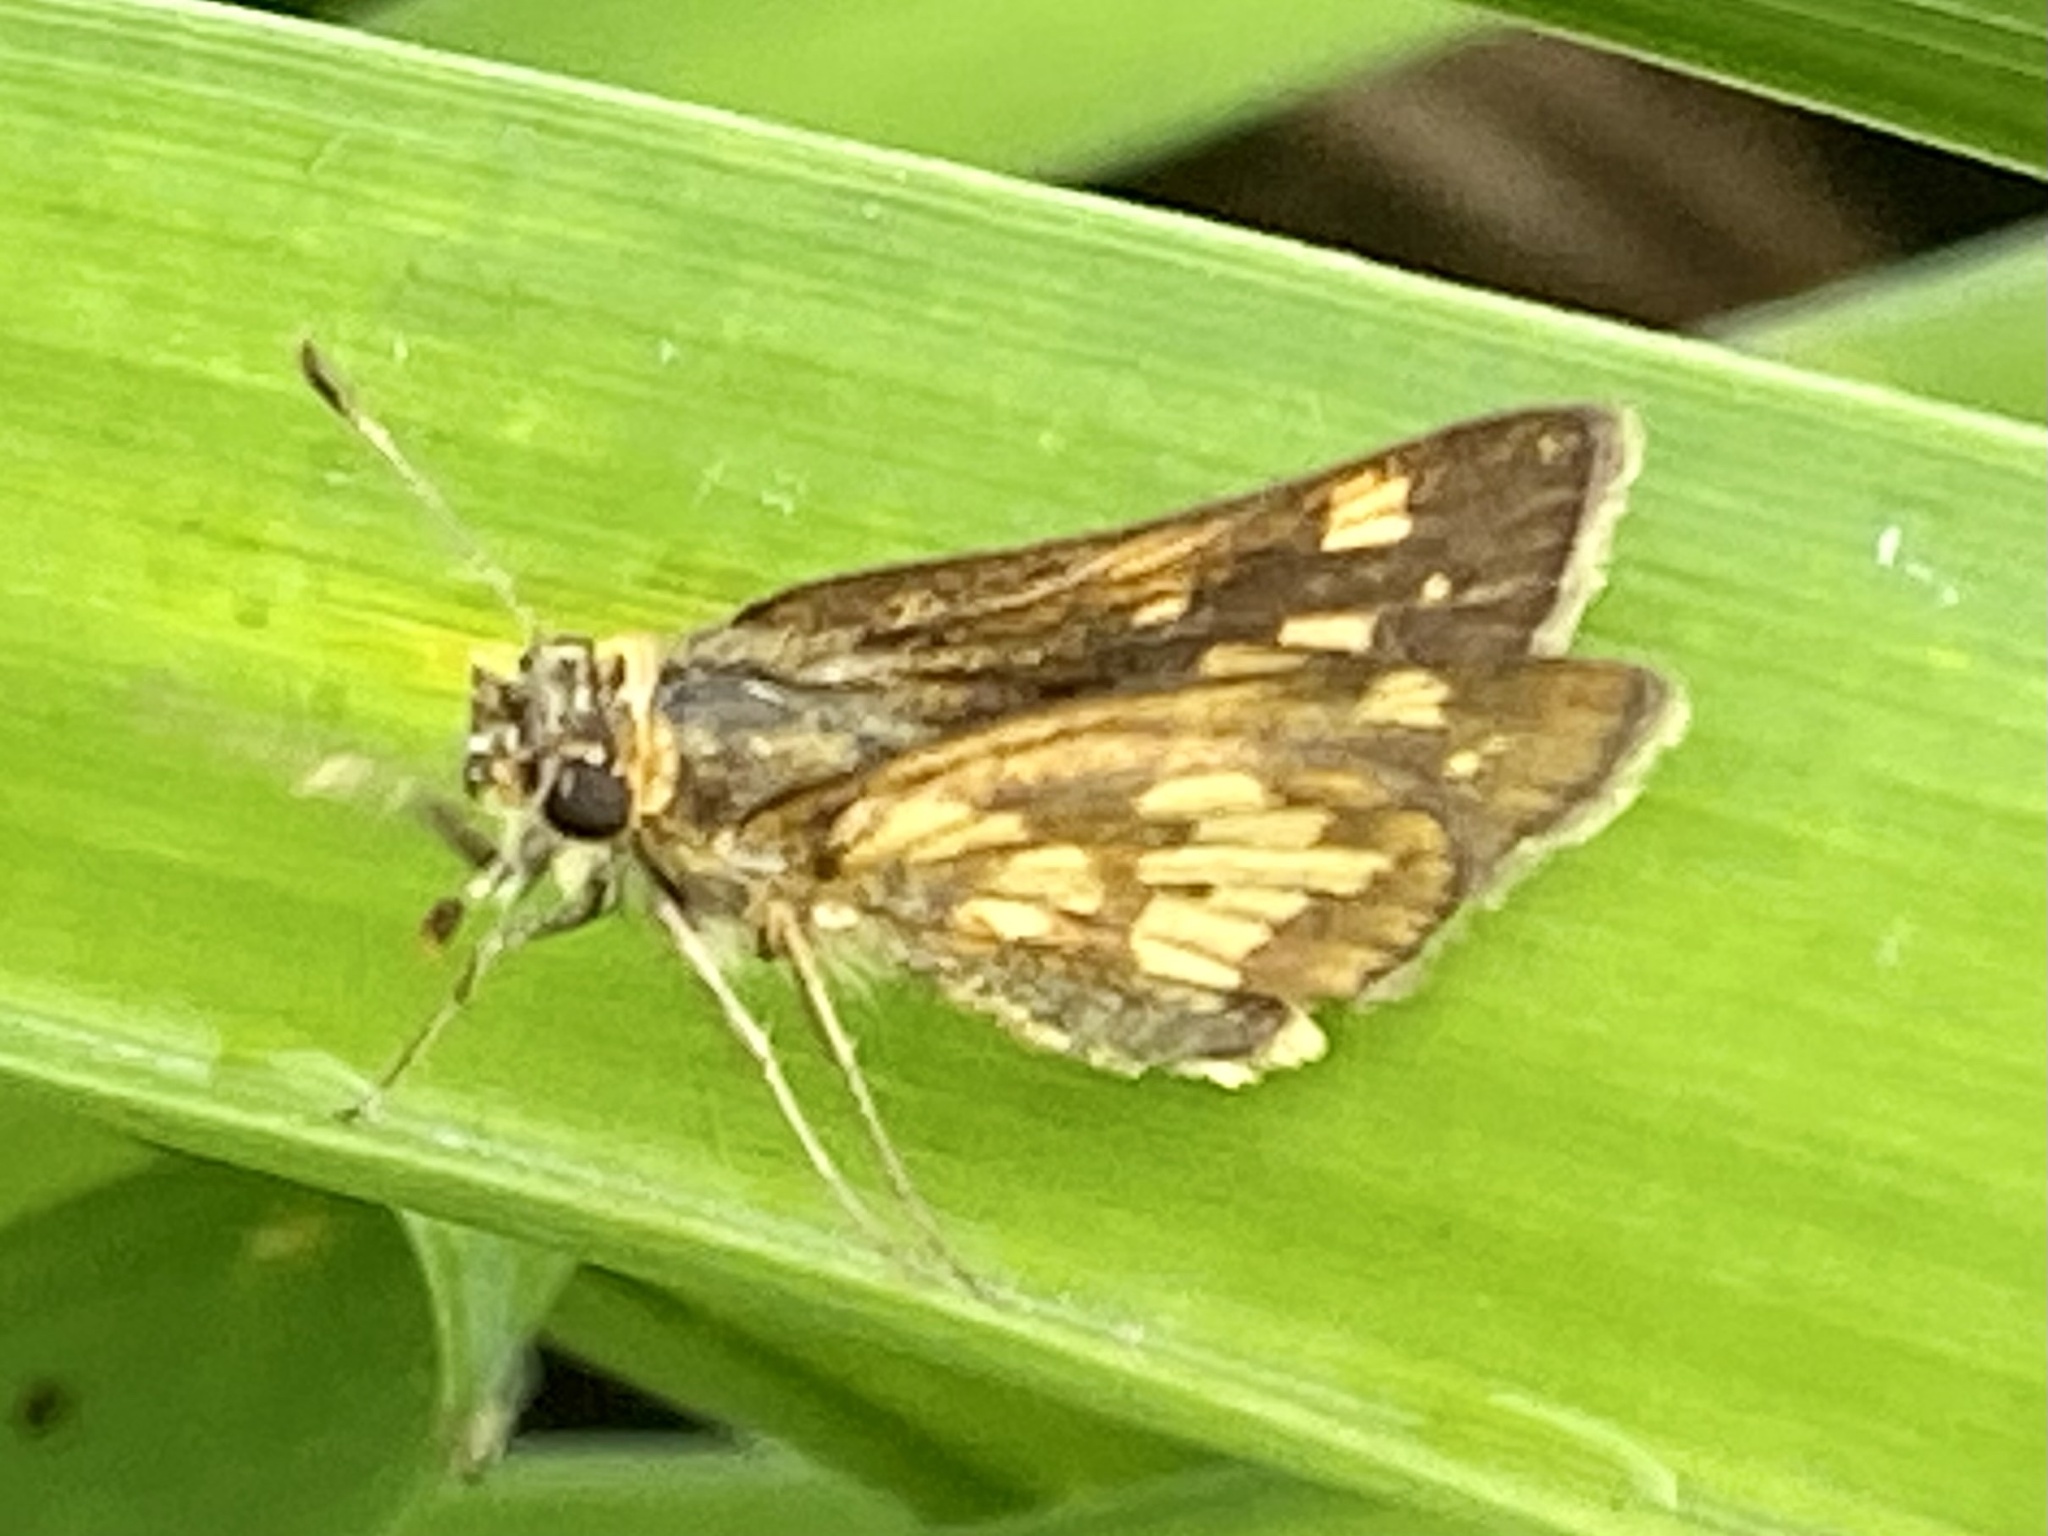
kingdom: Animalia
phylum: Arthropoda
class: Insecta
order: Lepidoptera
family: Hesperiidae
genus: Polites
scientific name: Polites coras
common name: Peck's skipper
